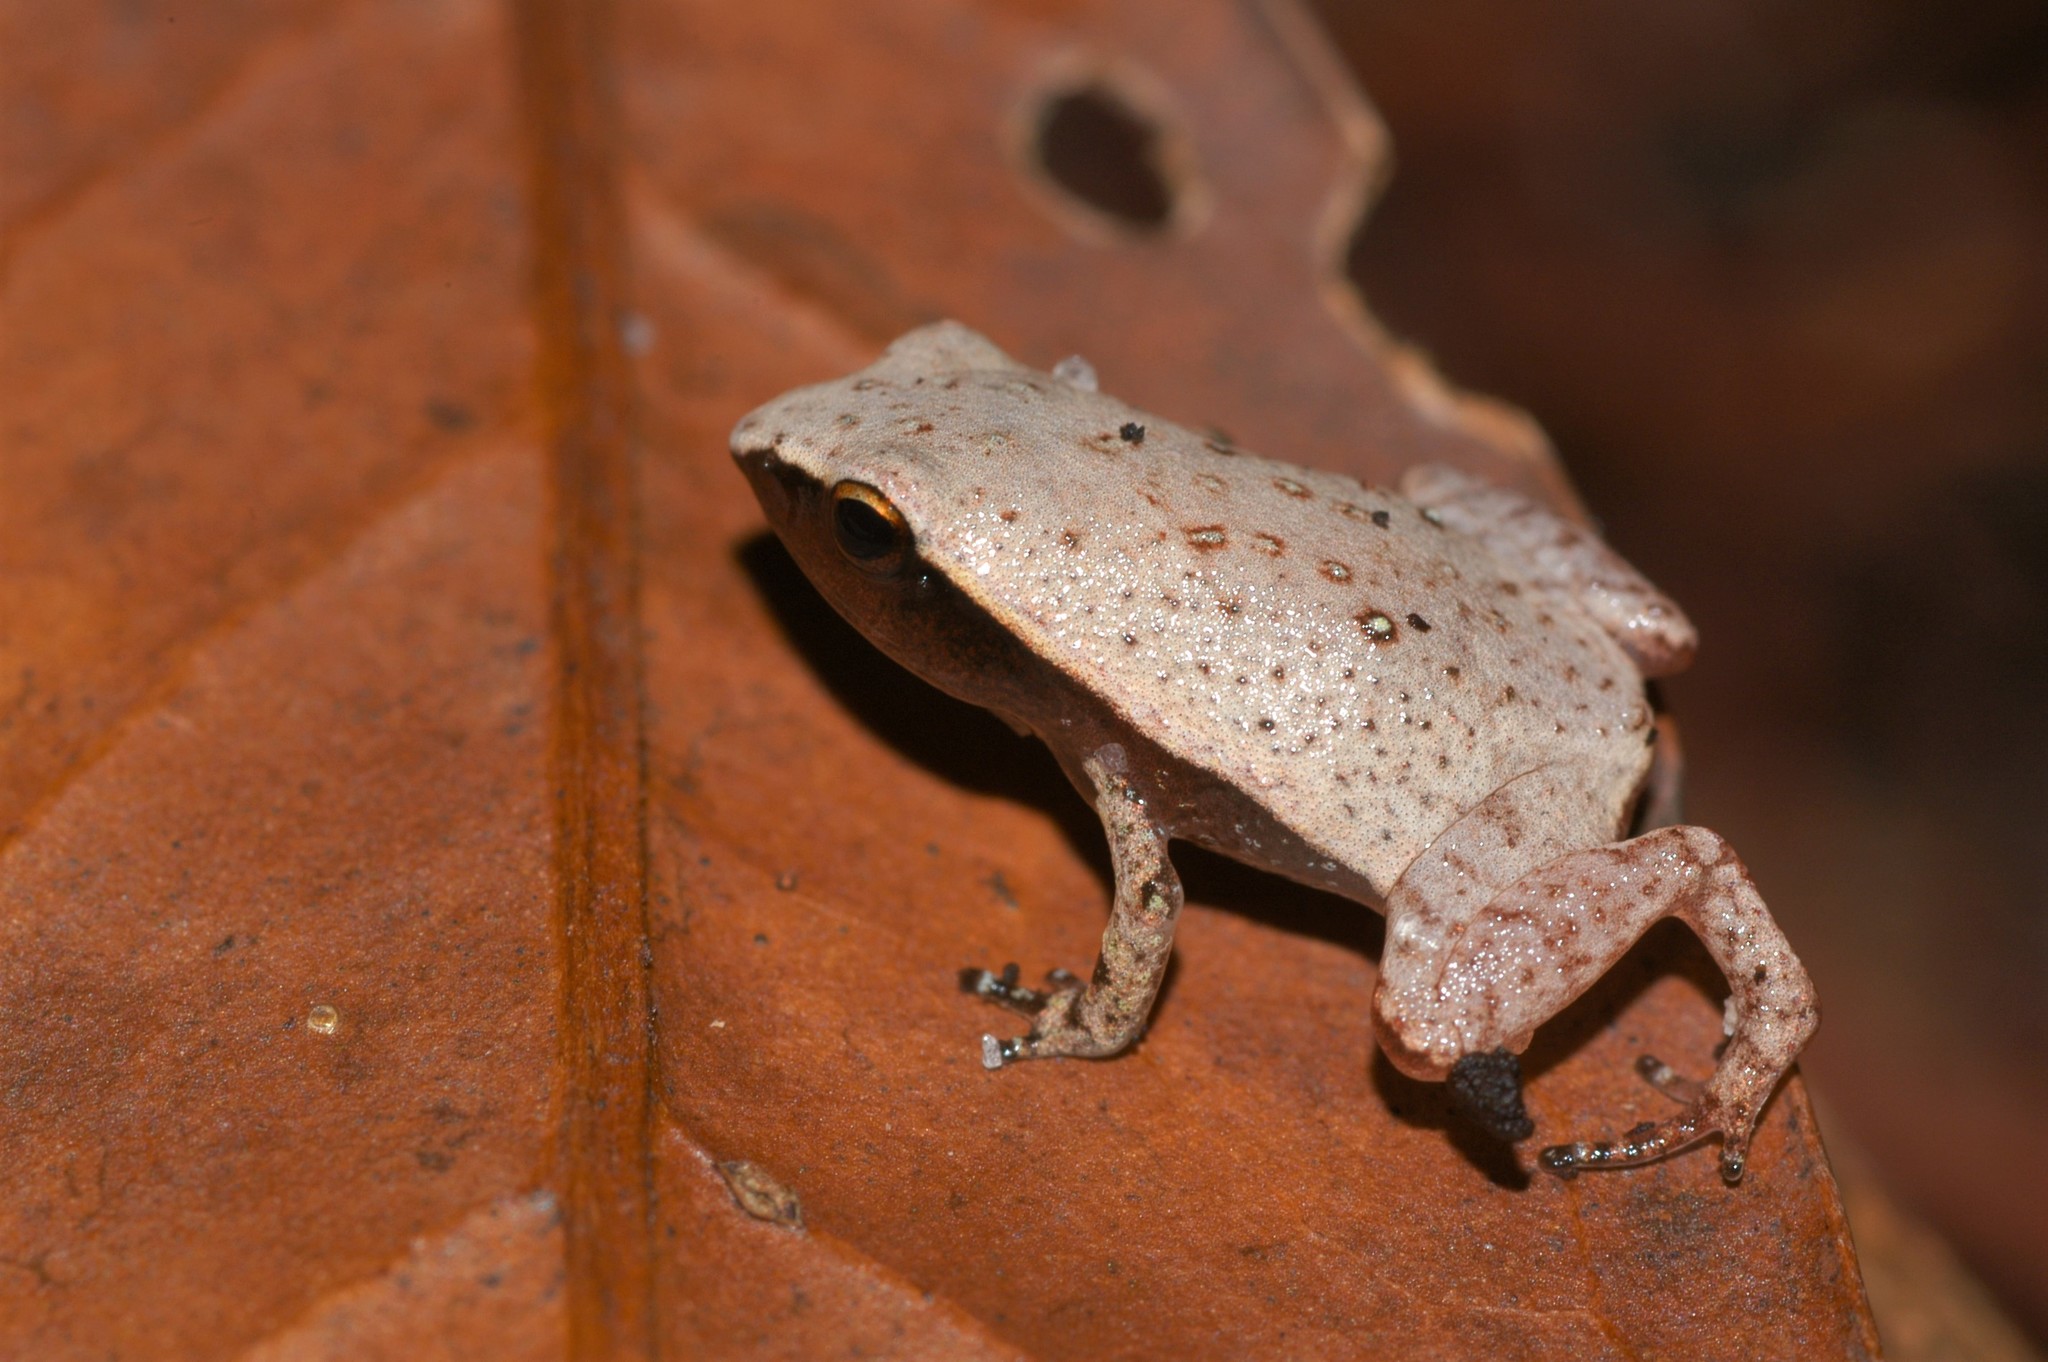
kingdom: Animalia
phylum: Chordata
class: Amphibia
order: Anura
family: Microhylidae
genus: Plethodontohyla
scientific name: Plethodontohyla notosticta
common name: Mahanoro digging frog
